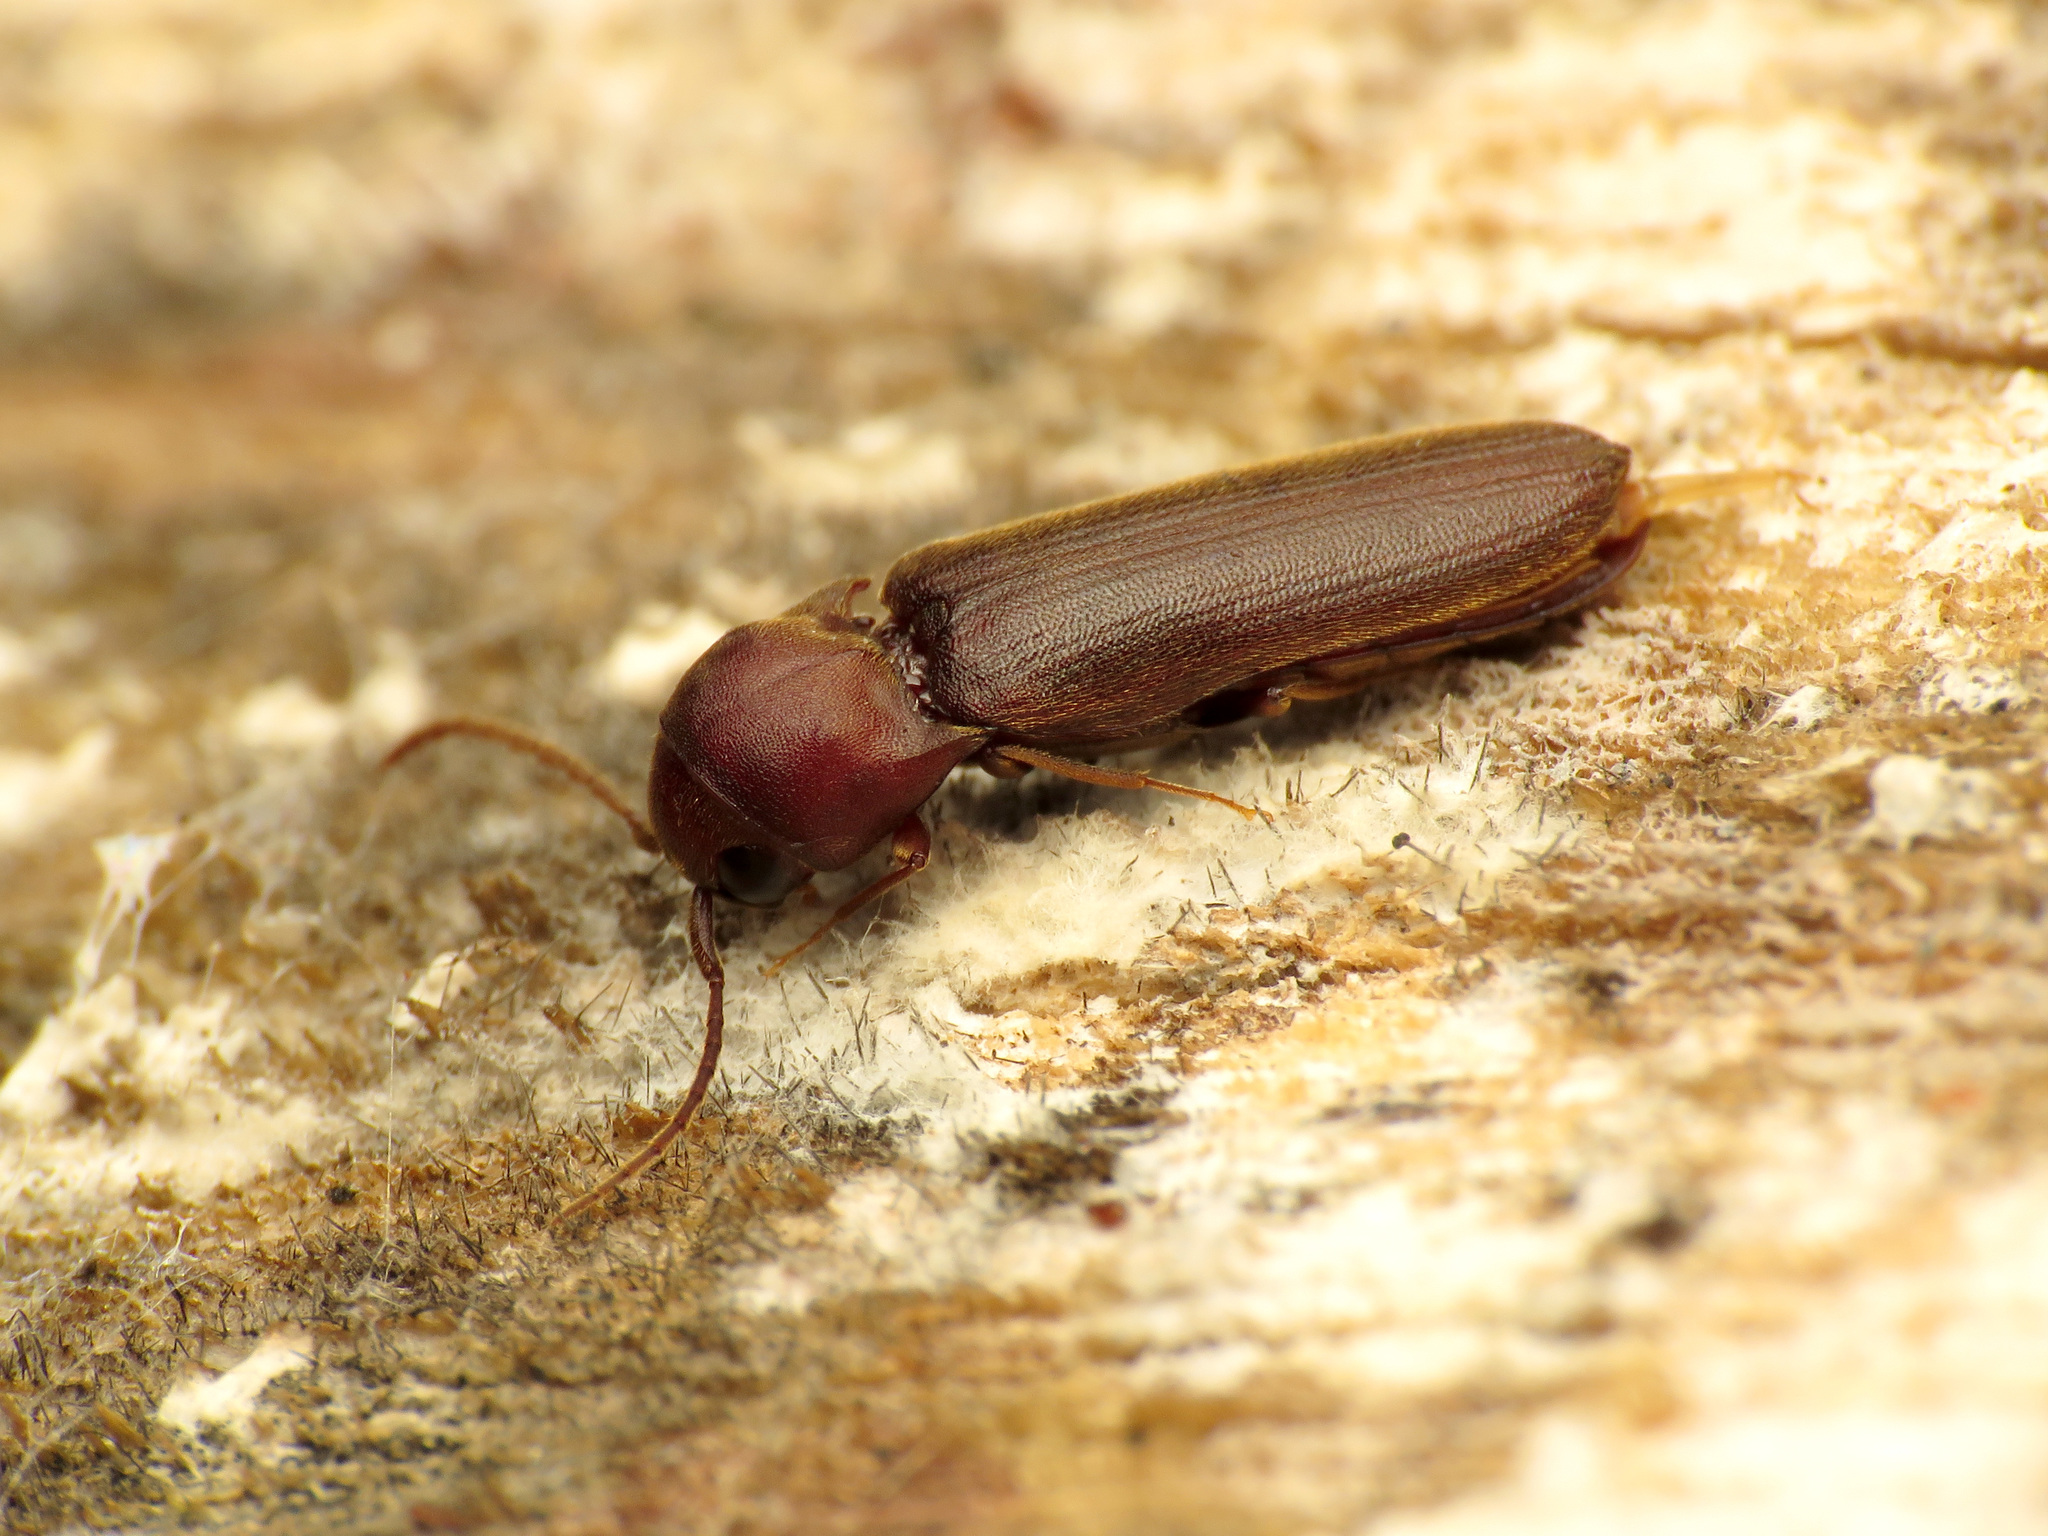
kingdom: Animalia
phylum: Arthropoda
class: Insecta
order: Coleoptera
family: Eucnemidae
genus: Dirrhagofarsus
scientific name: Dirrhagofarsus lewisi
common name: False click beetle
